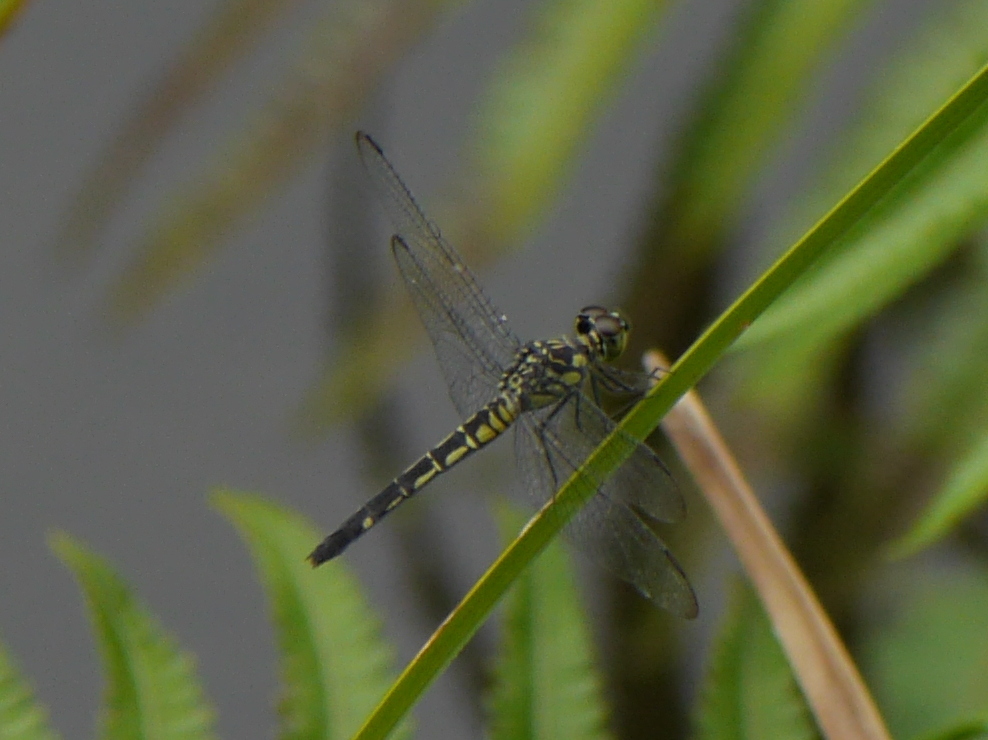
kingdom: Animalia
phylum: Arthropoda
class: Insecta
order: Odonata
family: Libellulidae
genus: Chalcostephia
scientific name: Chalcostephia flavifrons
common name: Inspector
